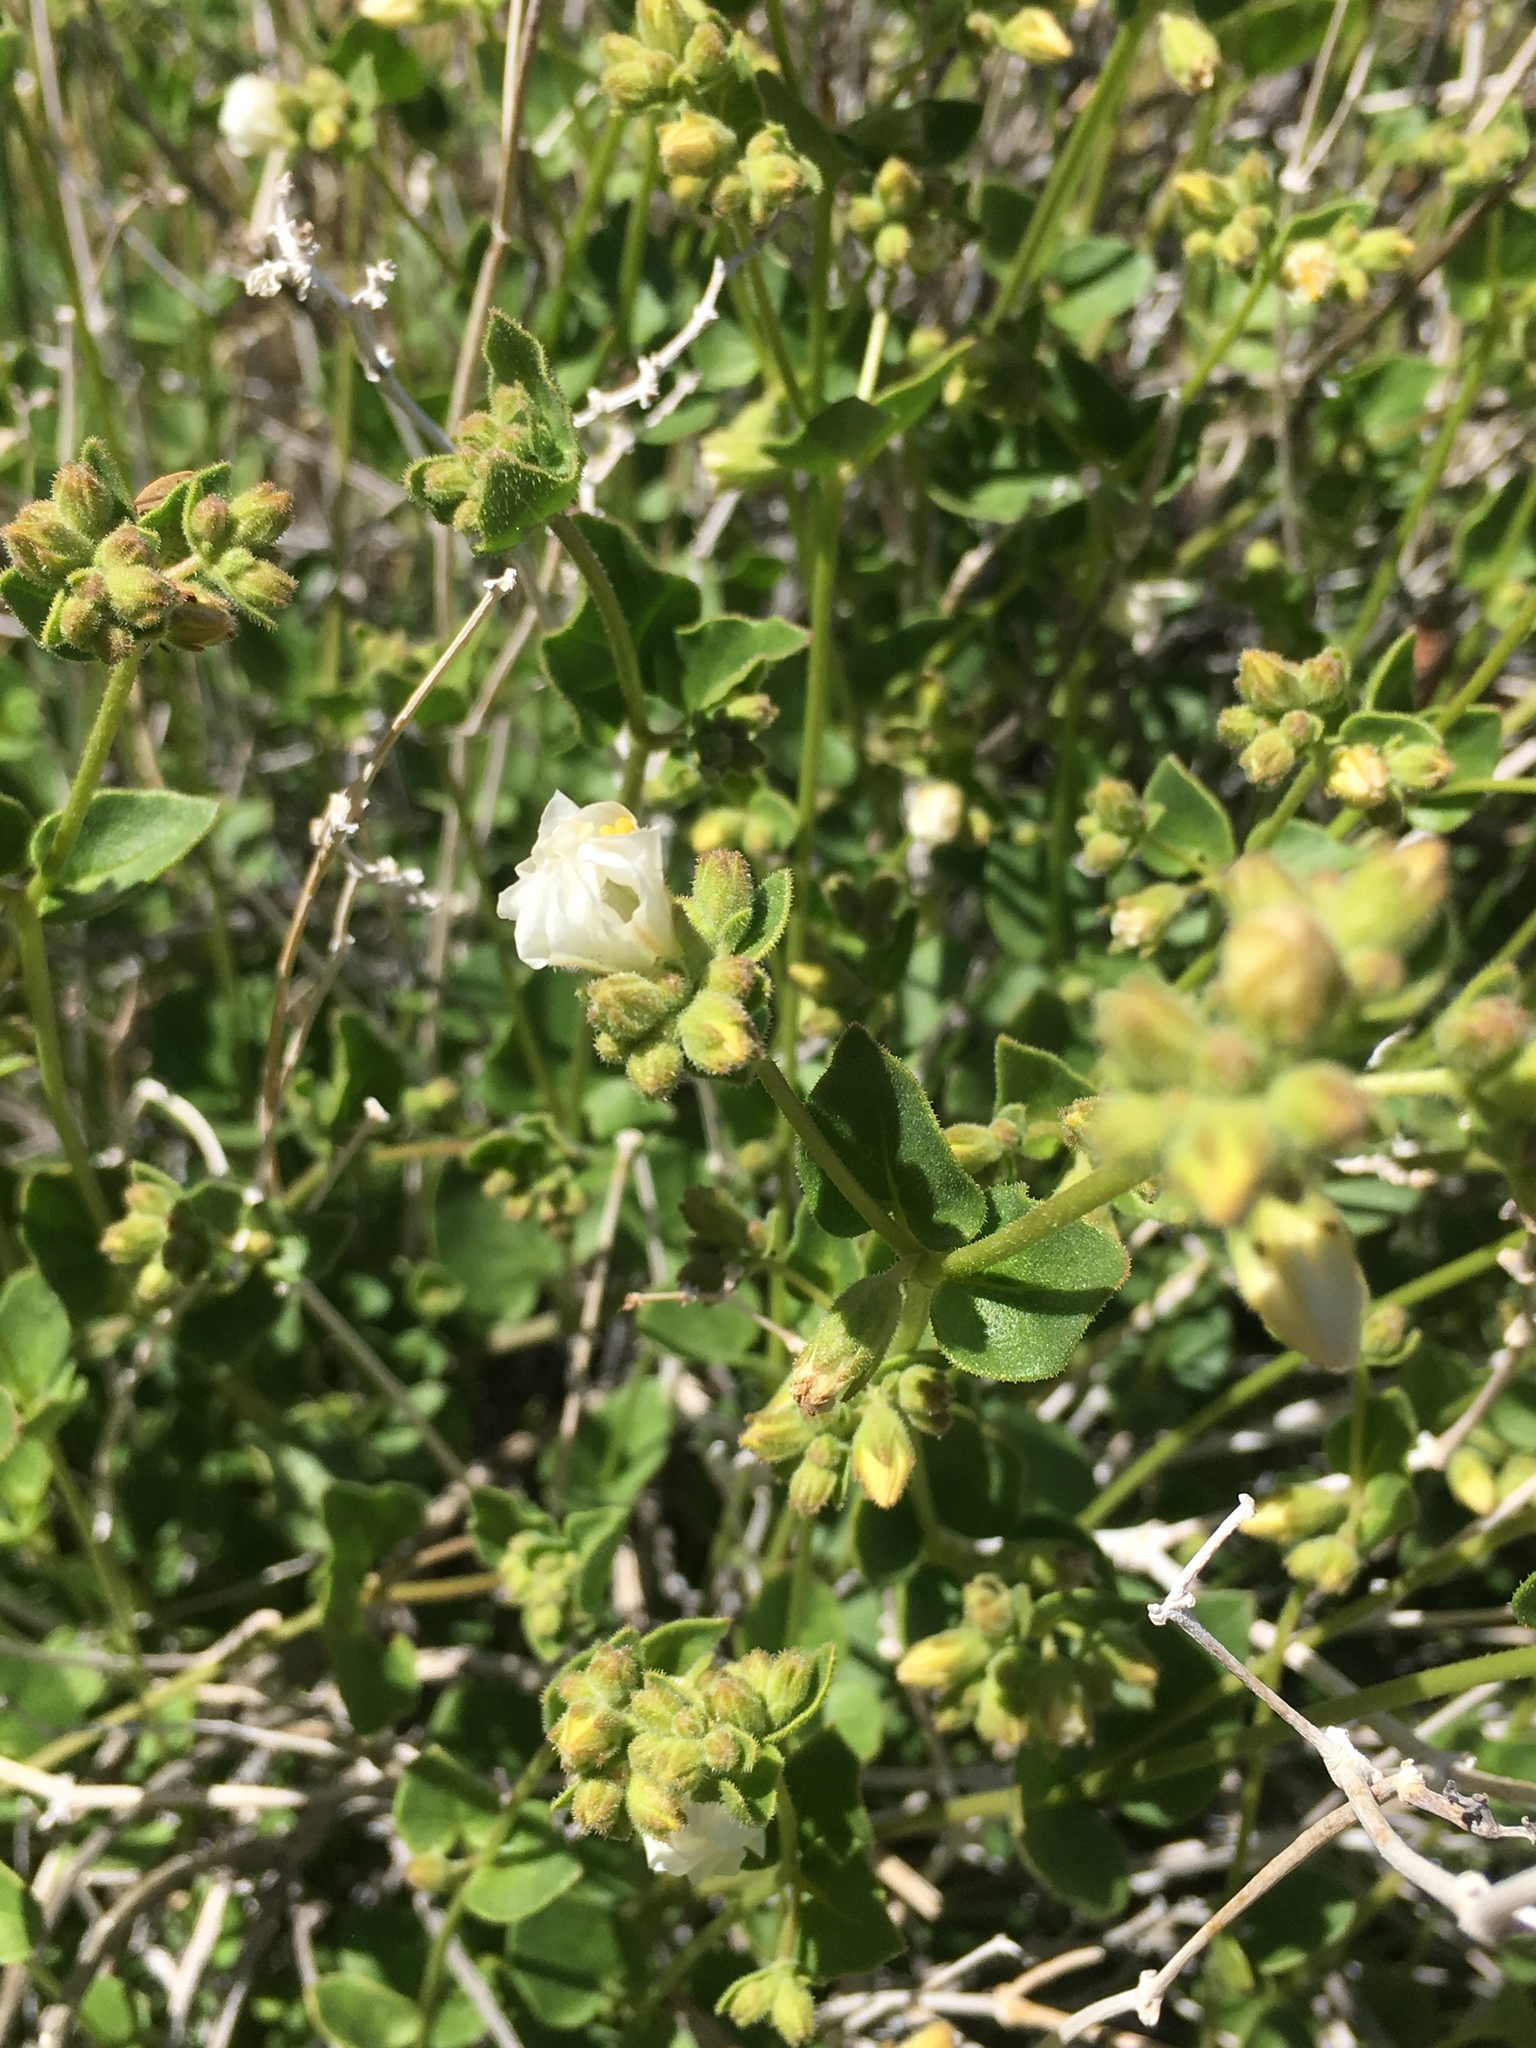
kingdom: Plantae
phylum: Tracheophyta
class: Magnoliopsida
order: Caryophyllales
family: Nyctaginaceae
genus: Mirabilis
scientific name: Mirabilis laevis
